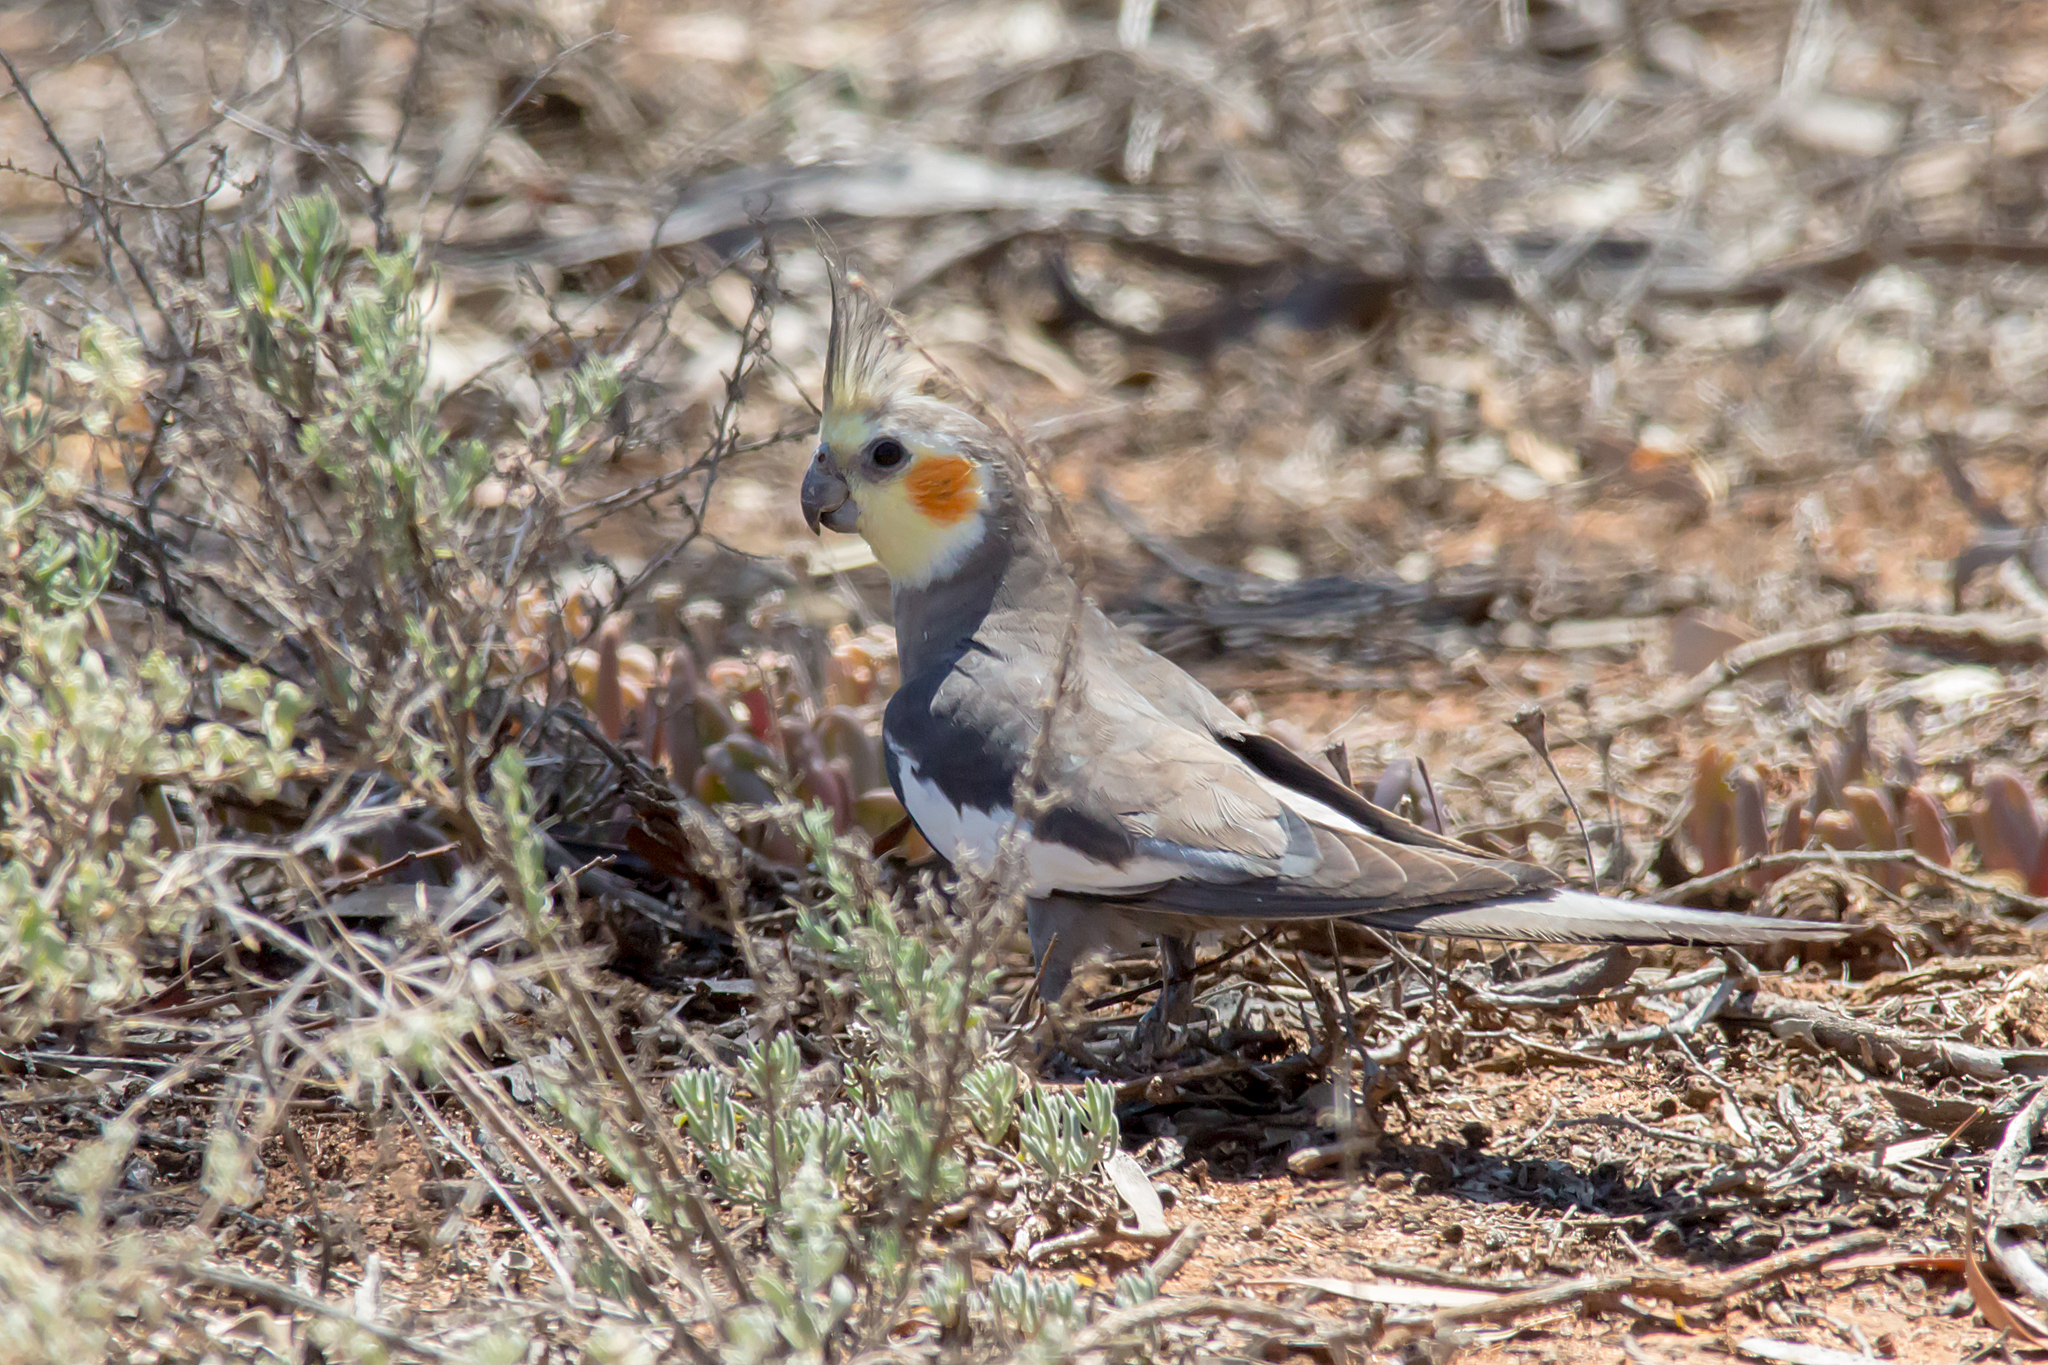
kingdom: Animalia
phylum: Chordata
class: Aves
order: Psittaciformes
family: Psittacidae
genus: Nymphicus
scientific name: Nymphicus hollandicus
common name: Cockatiel
